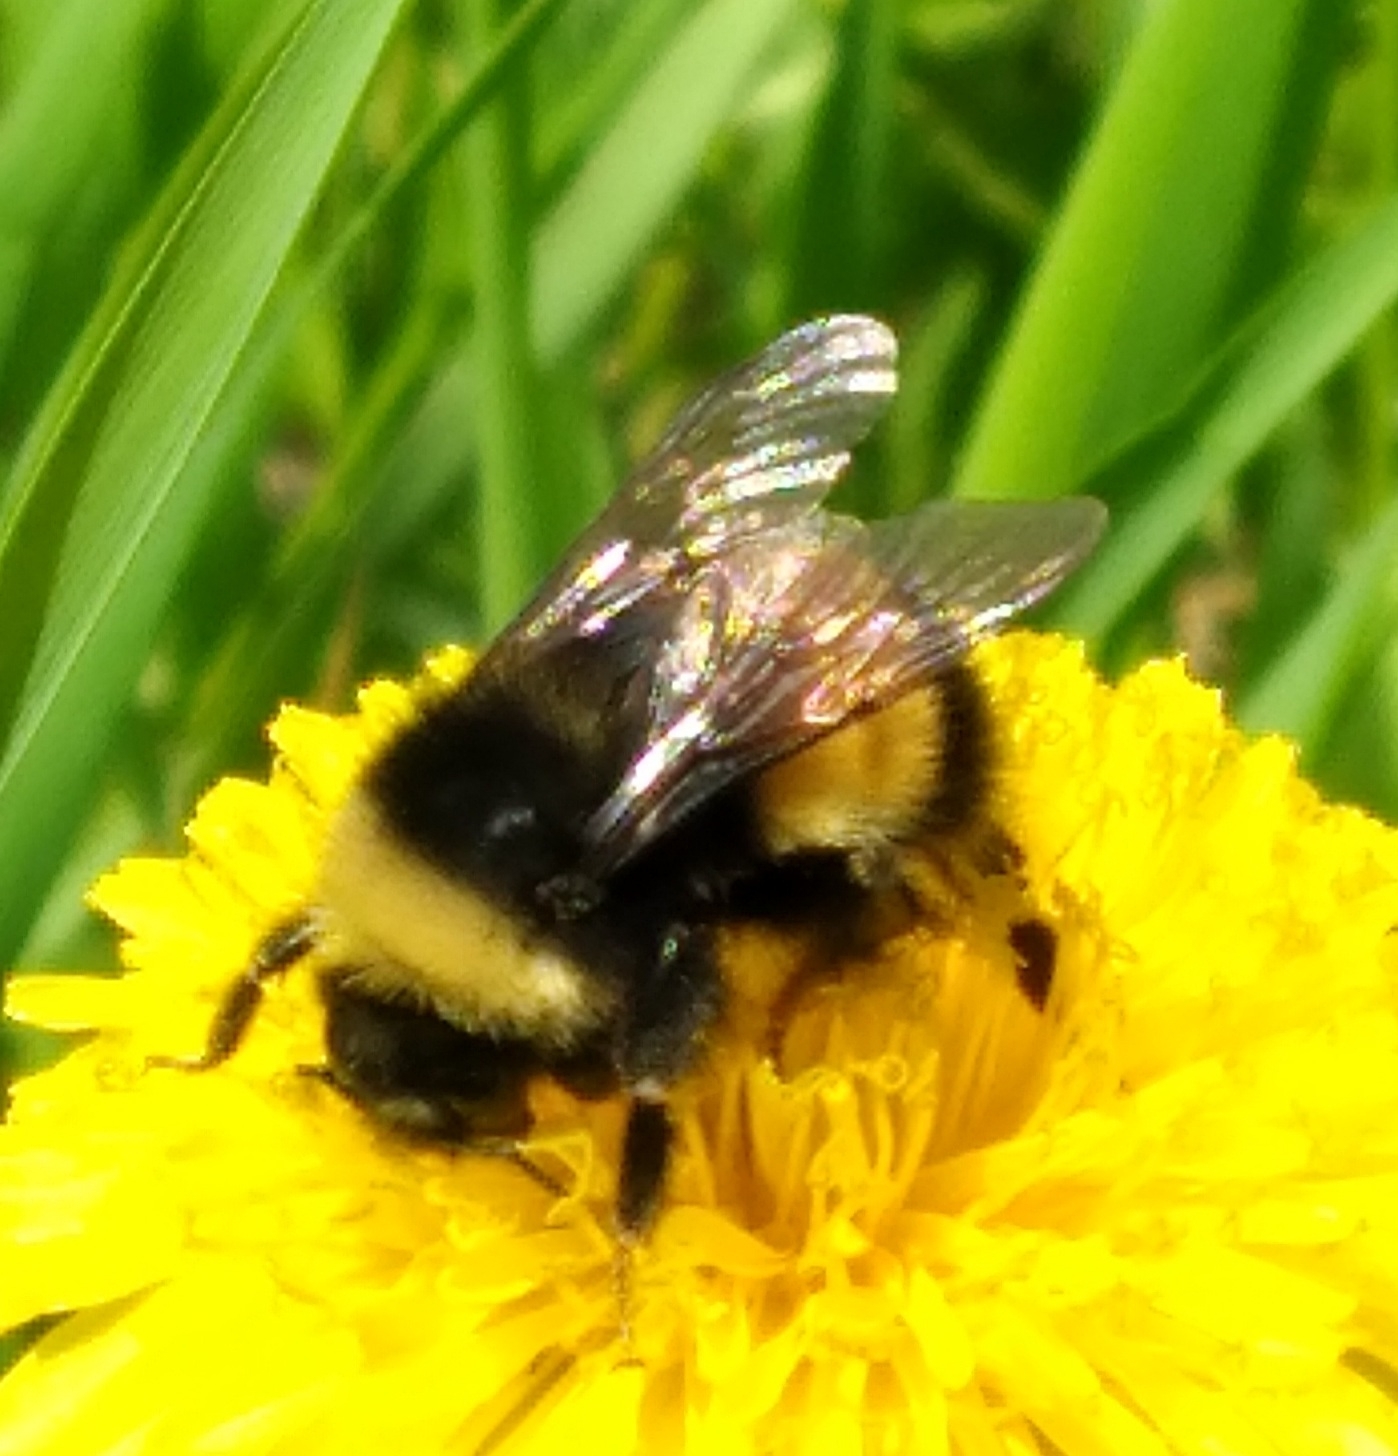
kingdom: Animalia
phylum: Arthropoda
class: Insecta
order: Hymenoptera
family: Apidae
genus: Bombus
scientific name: Bombus terricola
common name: Yellow-banded bumble bee
